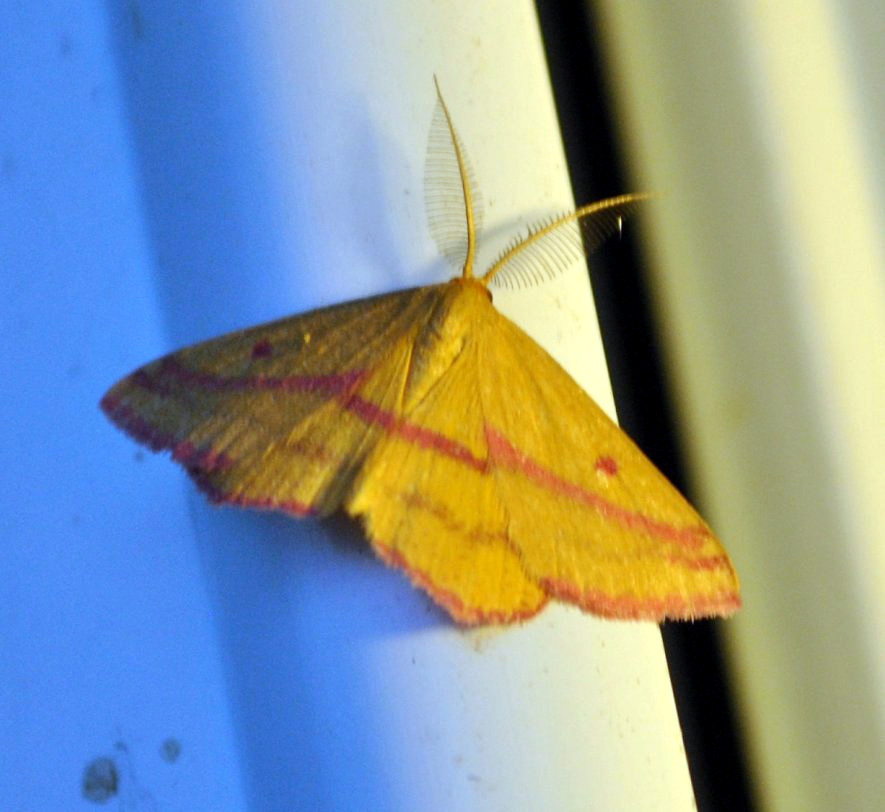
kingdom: Animalia
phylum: Arthropoda
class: Insecta
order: Lepidoptera
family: Geometridae
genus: Haematopis
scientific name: Haematopis grataria
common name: Chickweed geometer
